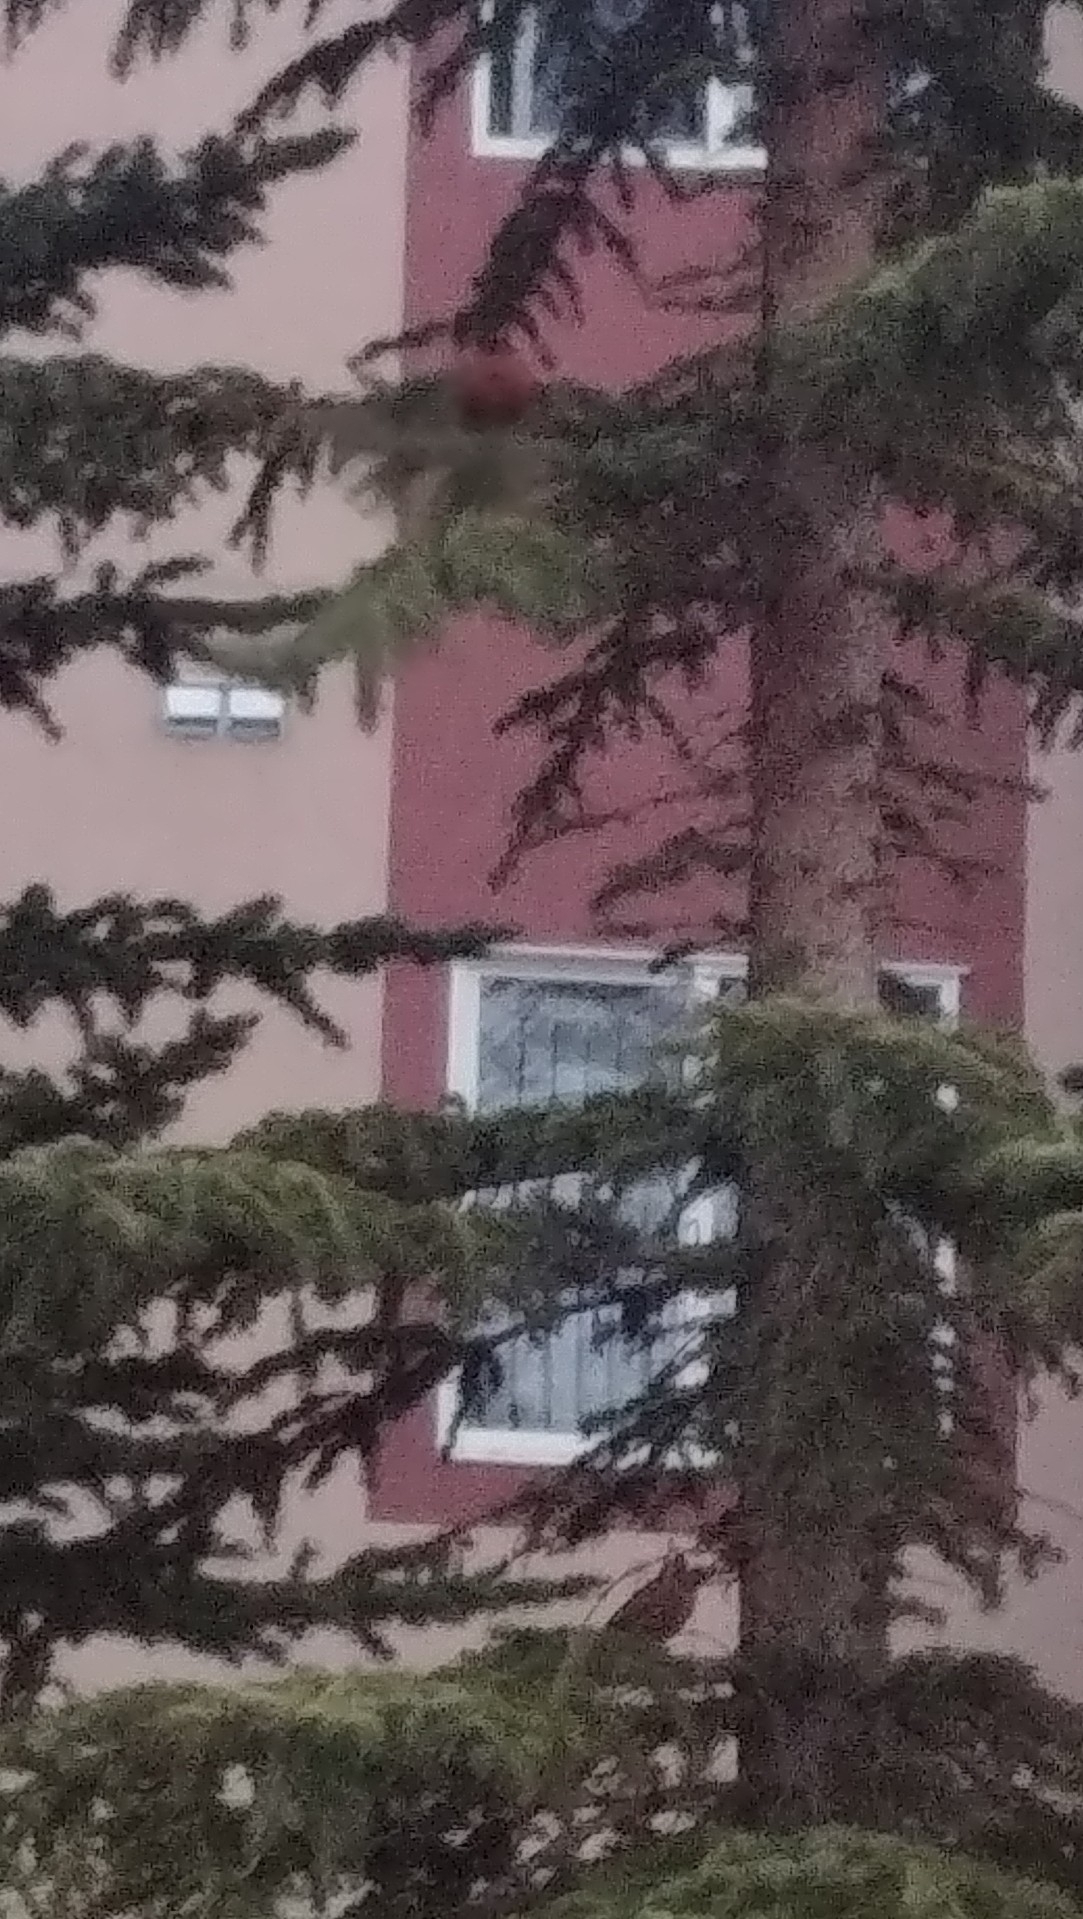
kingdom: Animalia
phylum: Chordata
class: Aves
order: Passeriformes
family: Turdidae
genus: Turdus
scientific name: Turdus migratorius
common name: American robin
